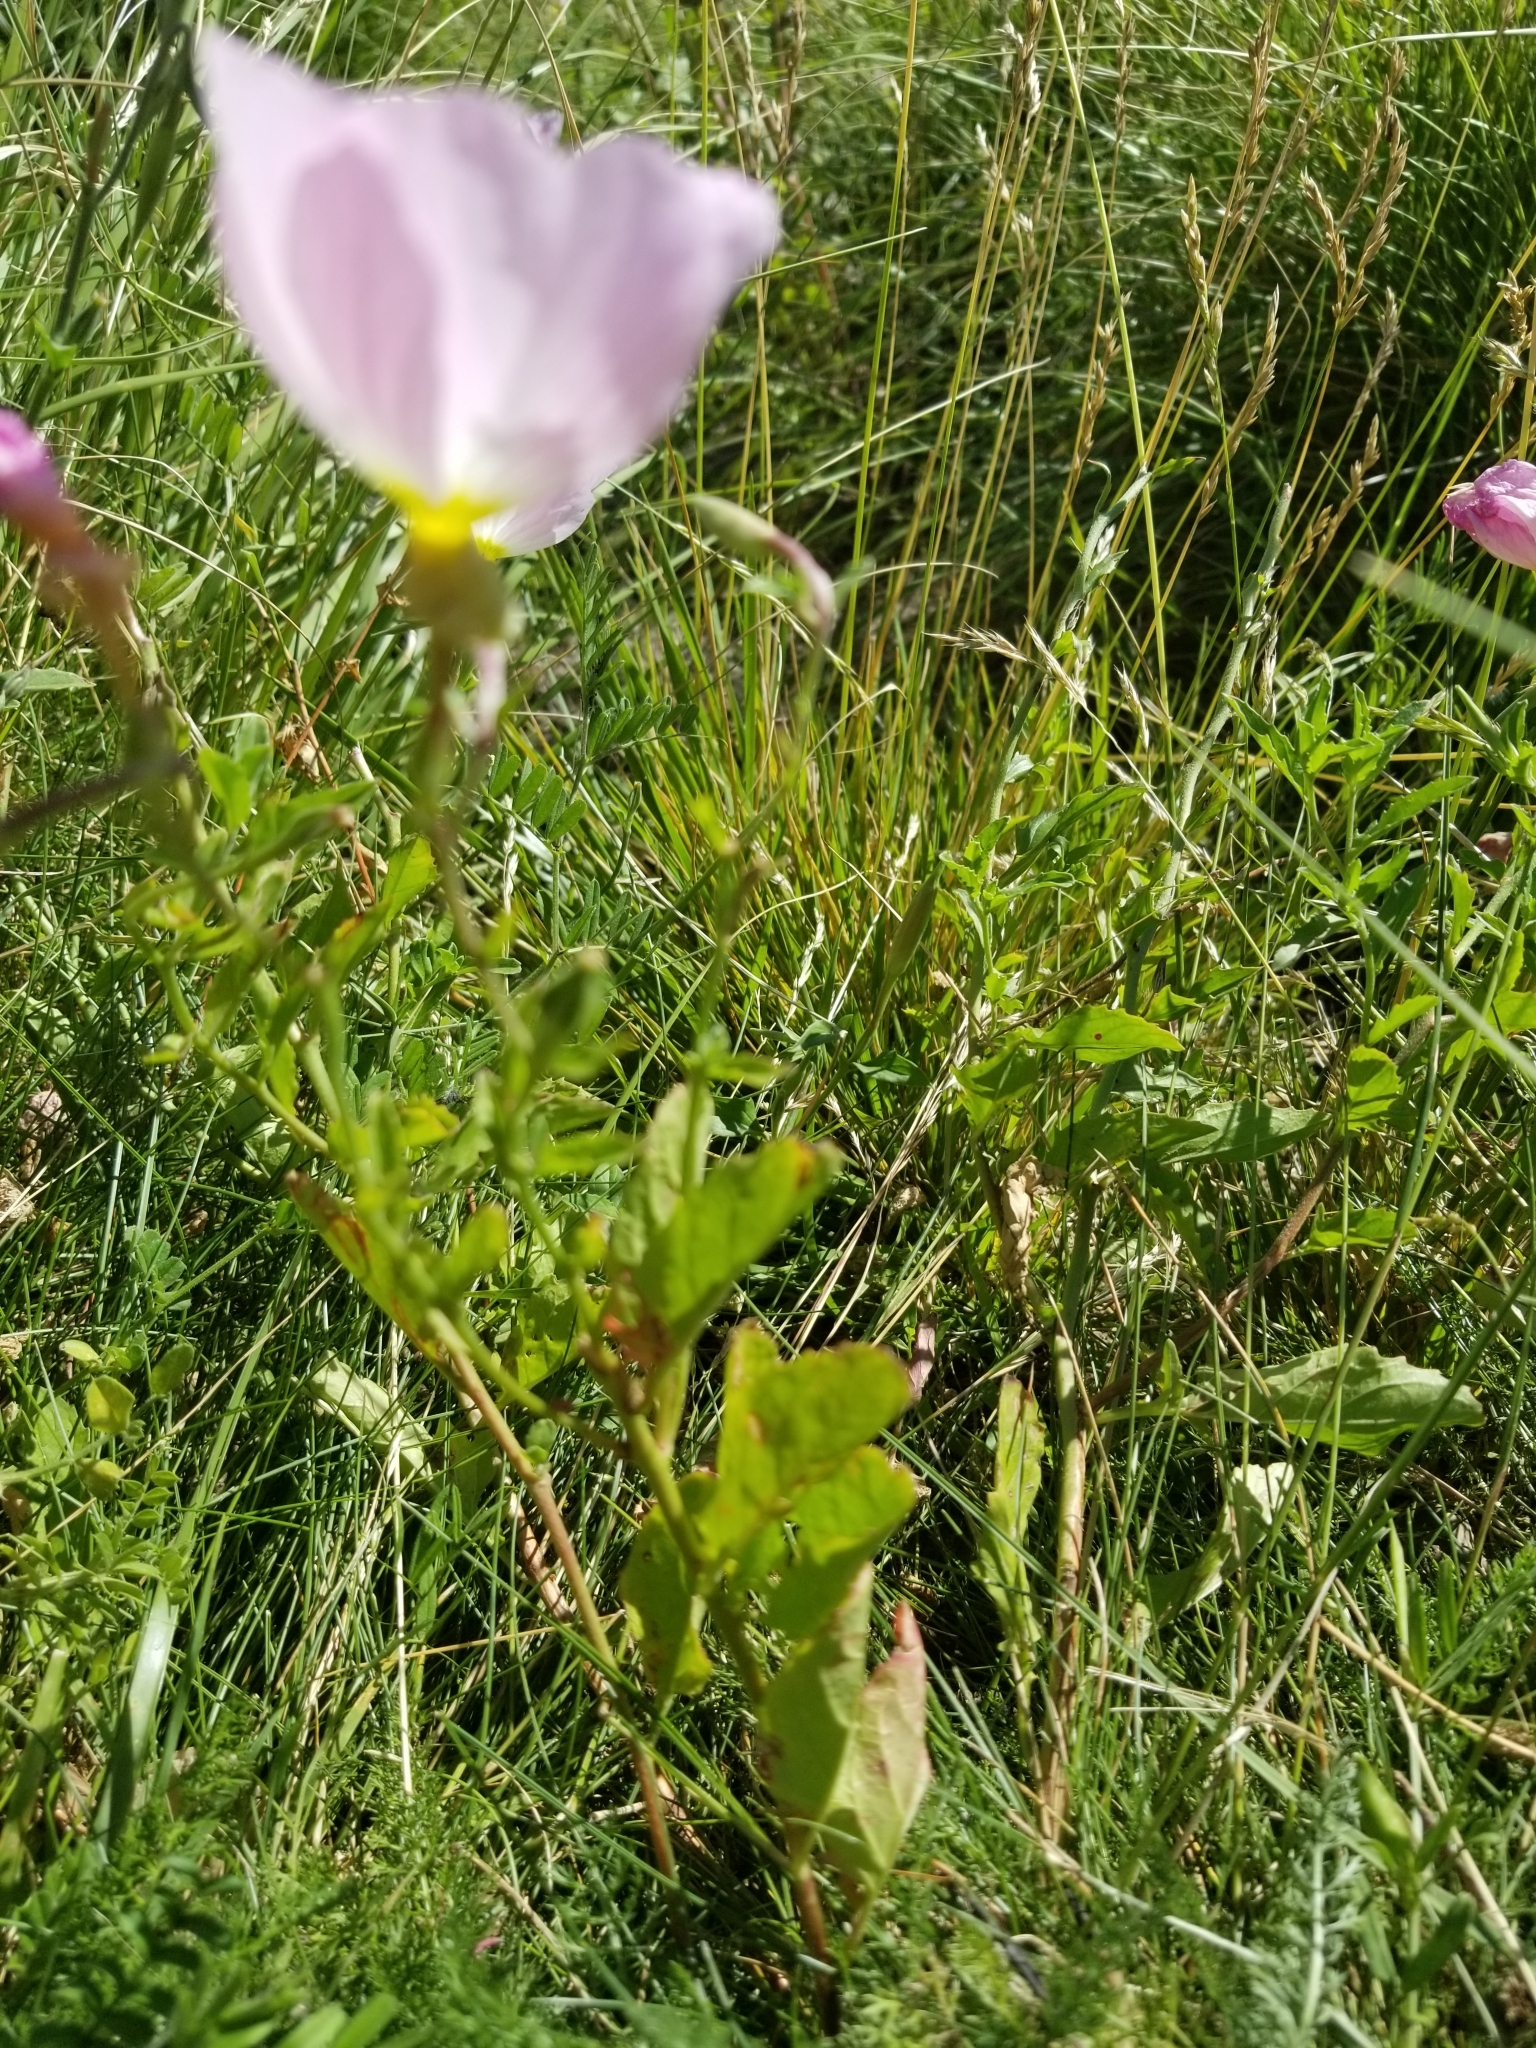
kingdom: Plantae
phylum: Tracheophyta
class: Magnoliopsida
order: Myrtales
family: Onagraceae
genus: Oenothera
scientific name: Oenothera speciosa
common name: White evening-primrose
